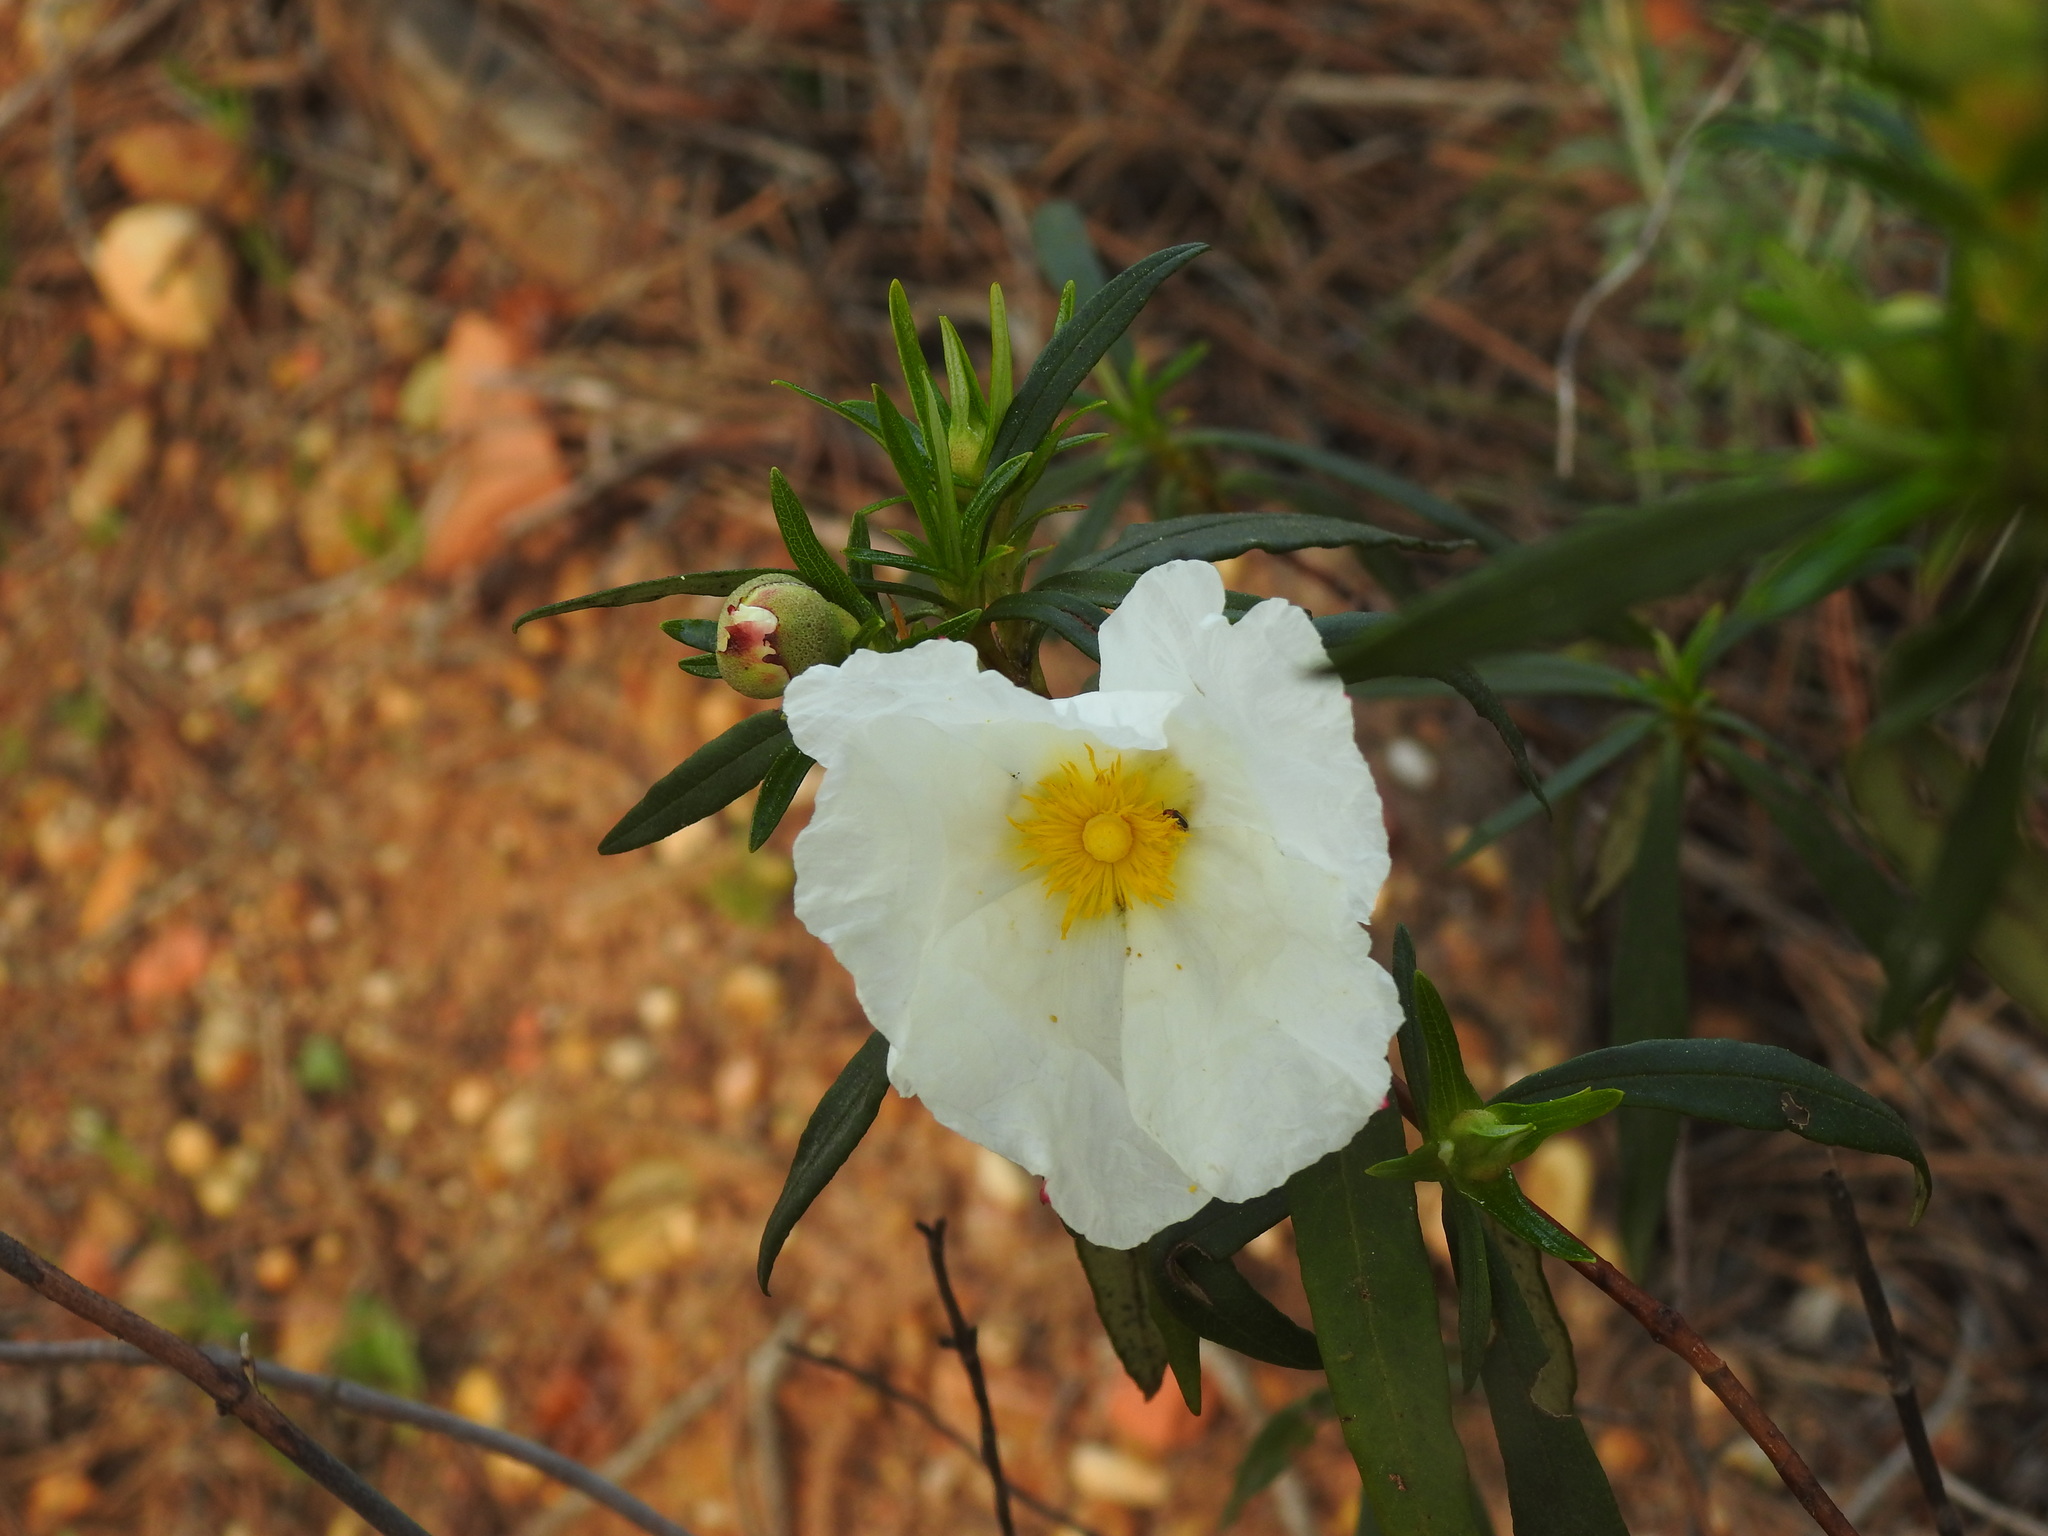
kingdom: Plantae
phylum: Tracheophyta
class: Magnoliopsida
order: Malvales
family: Cistaceae
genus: Cistus
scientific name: Cistus ladanifer
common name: Common gum cistus
